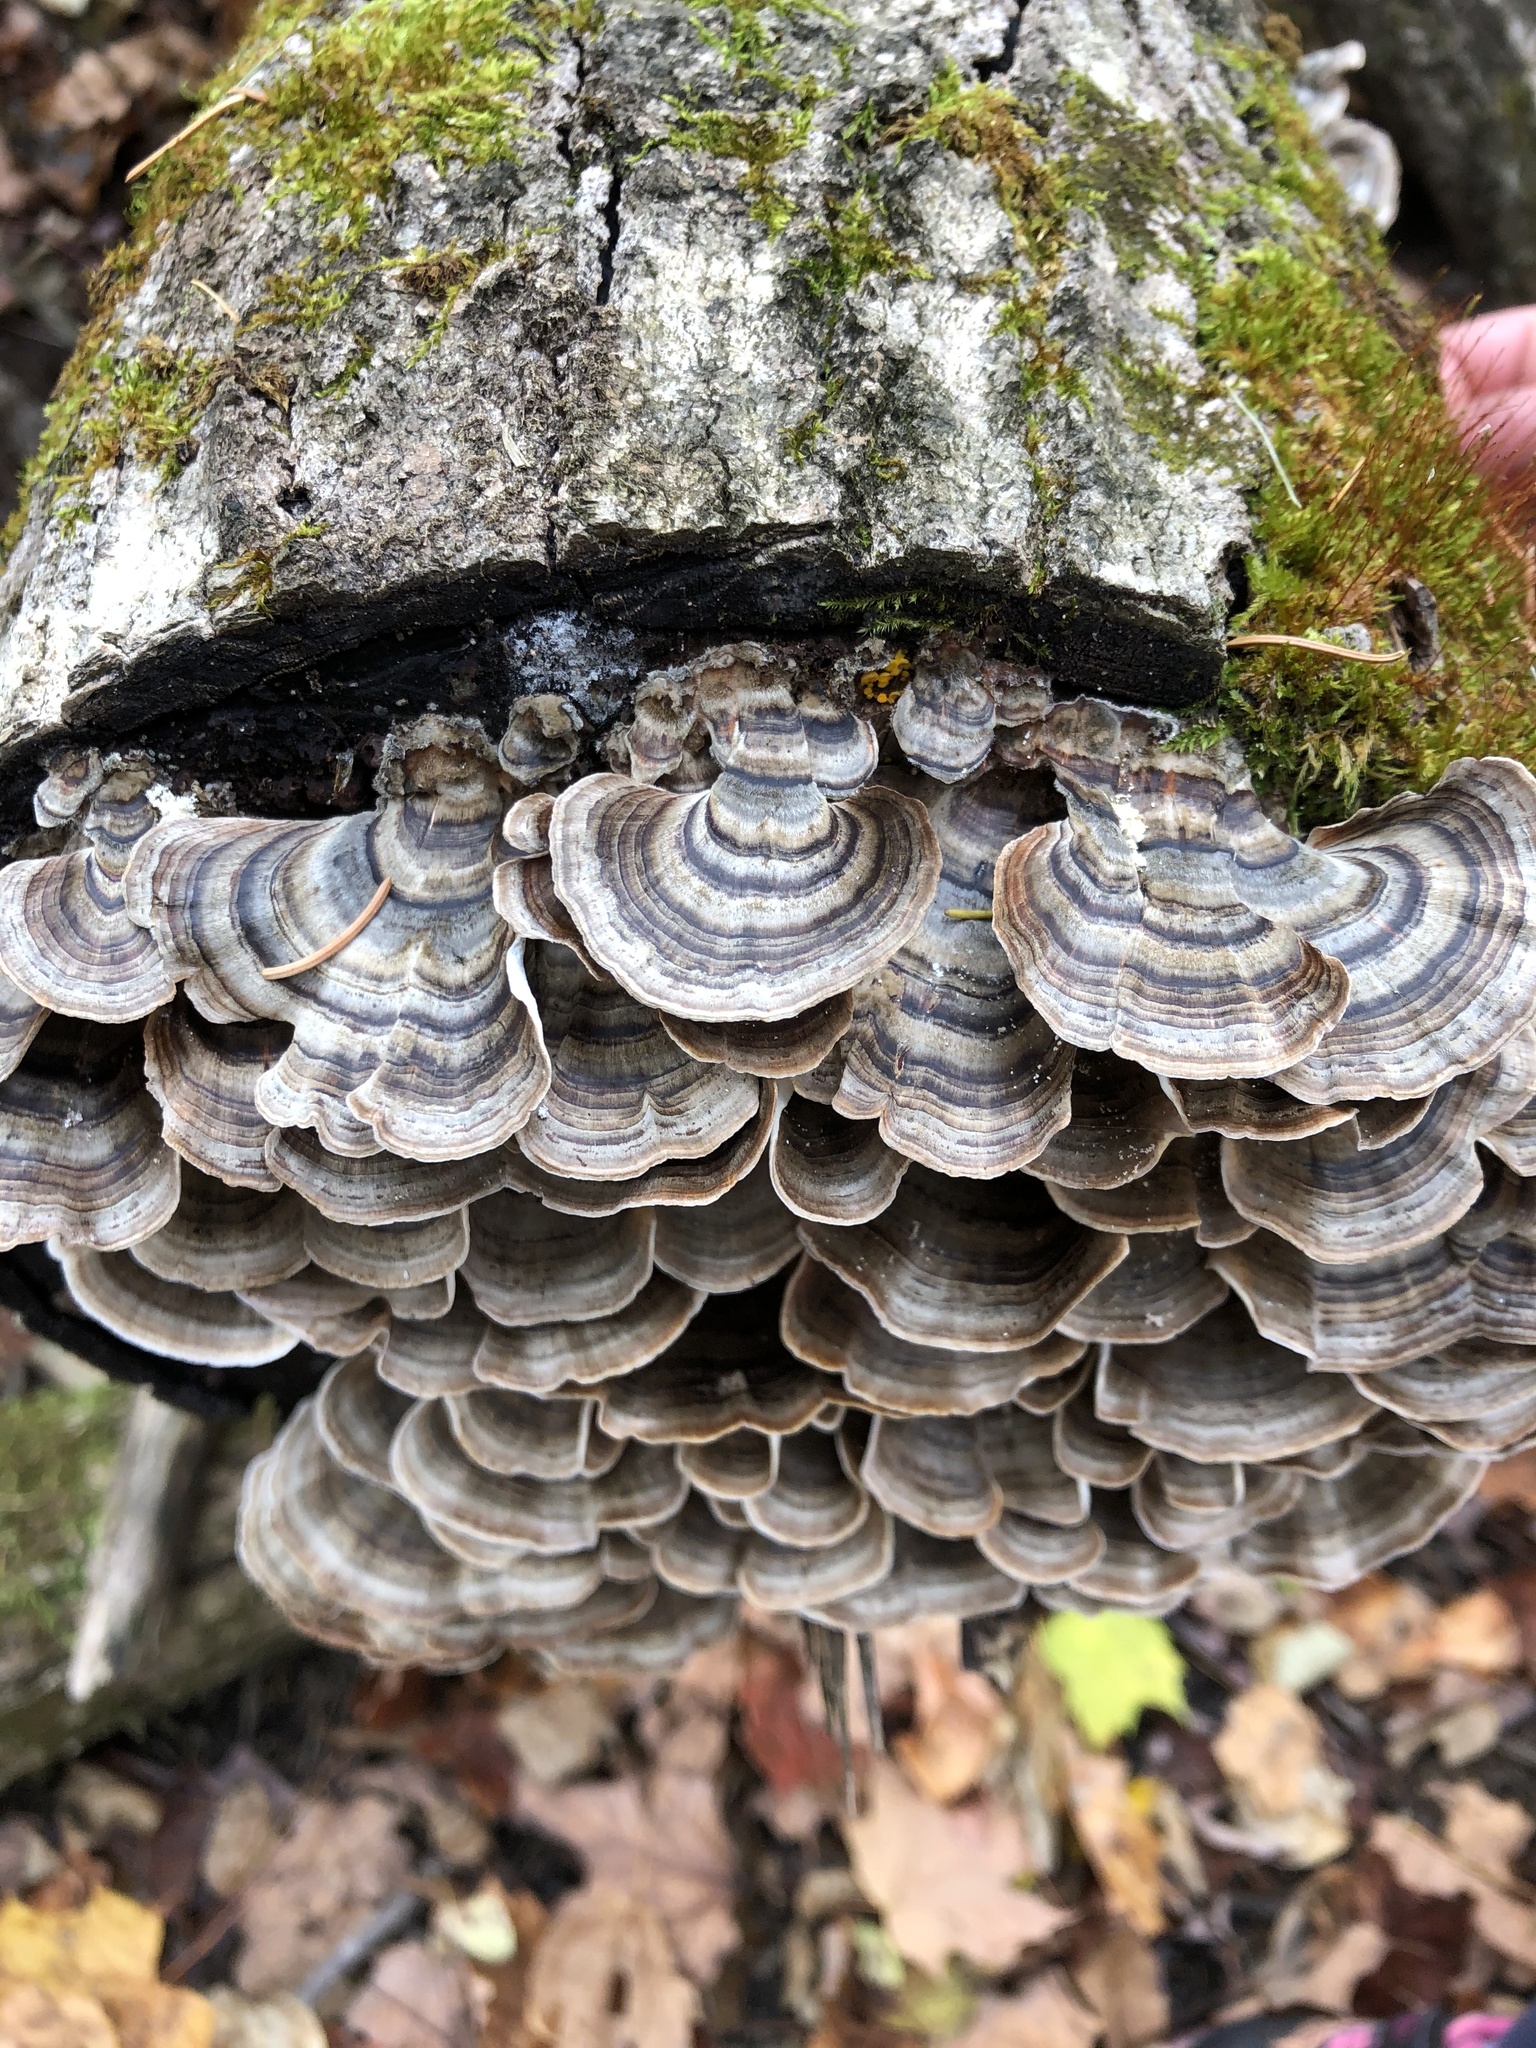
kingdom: Fungi
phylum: Basidiomycota
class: Agaricomycetes
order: Polyporales
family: Polyporaceae
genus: Trametes
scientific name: Trametes versicolor
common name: Turkeytail
